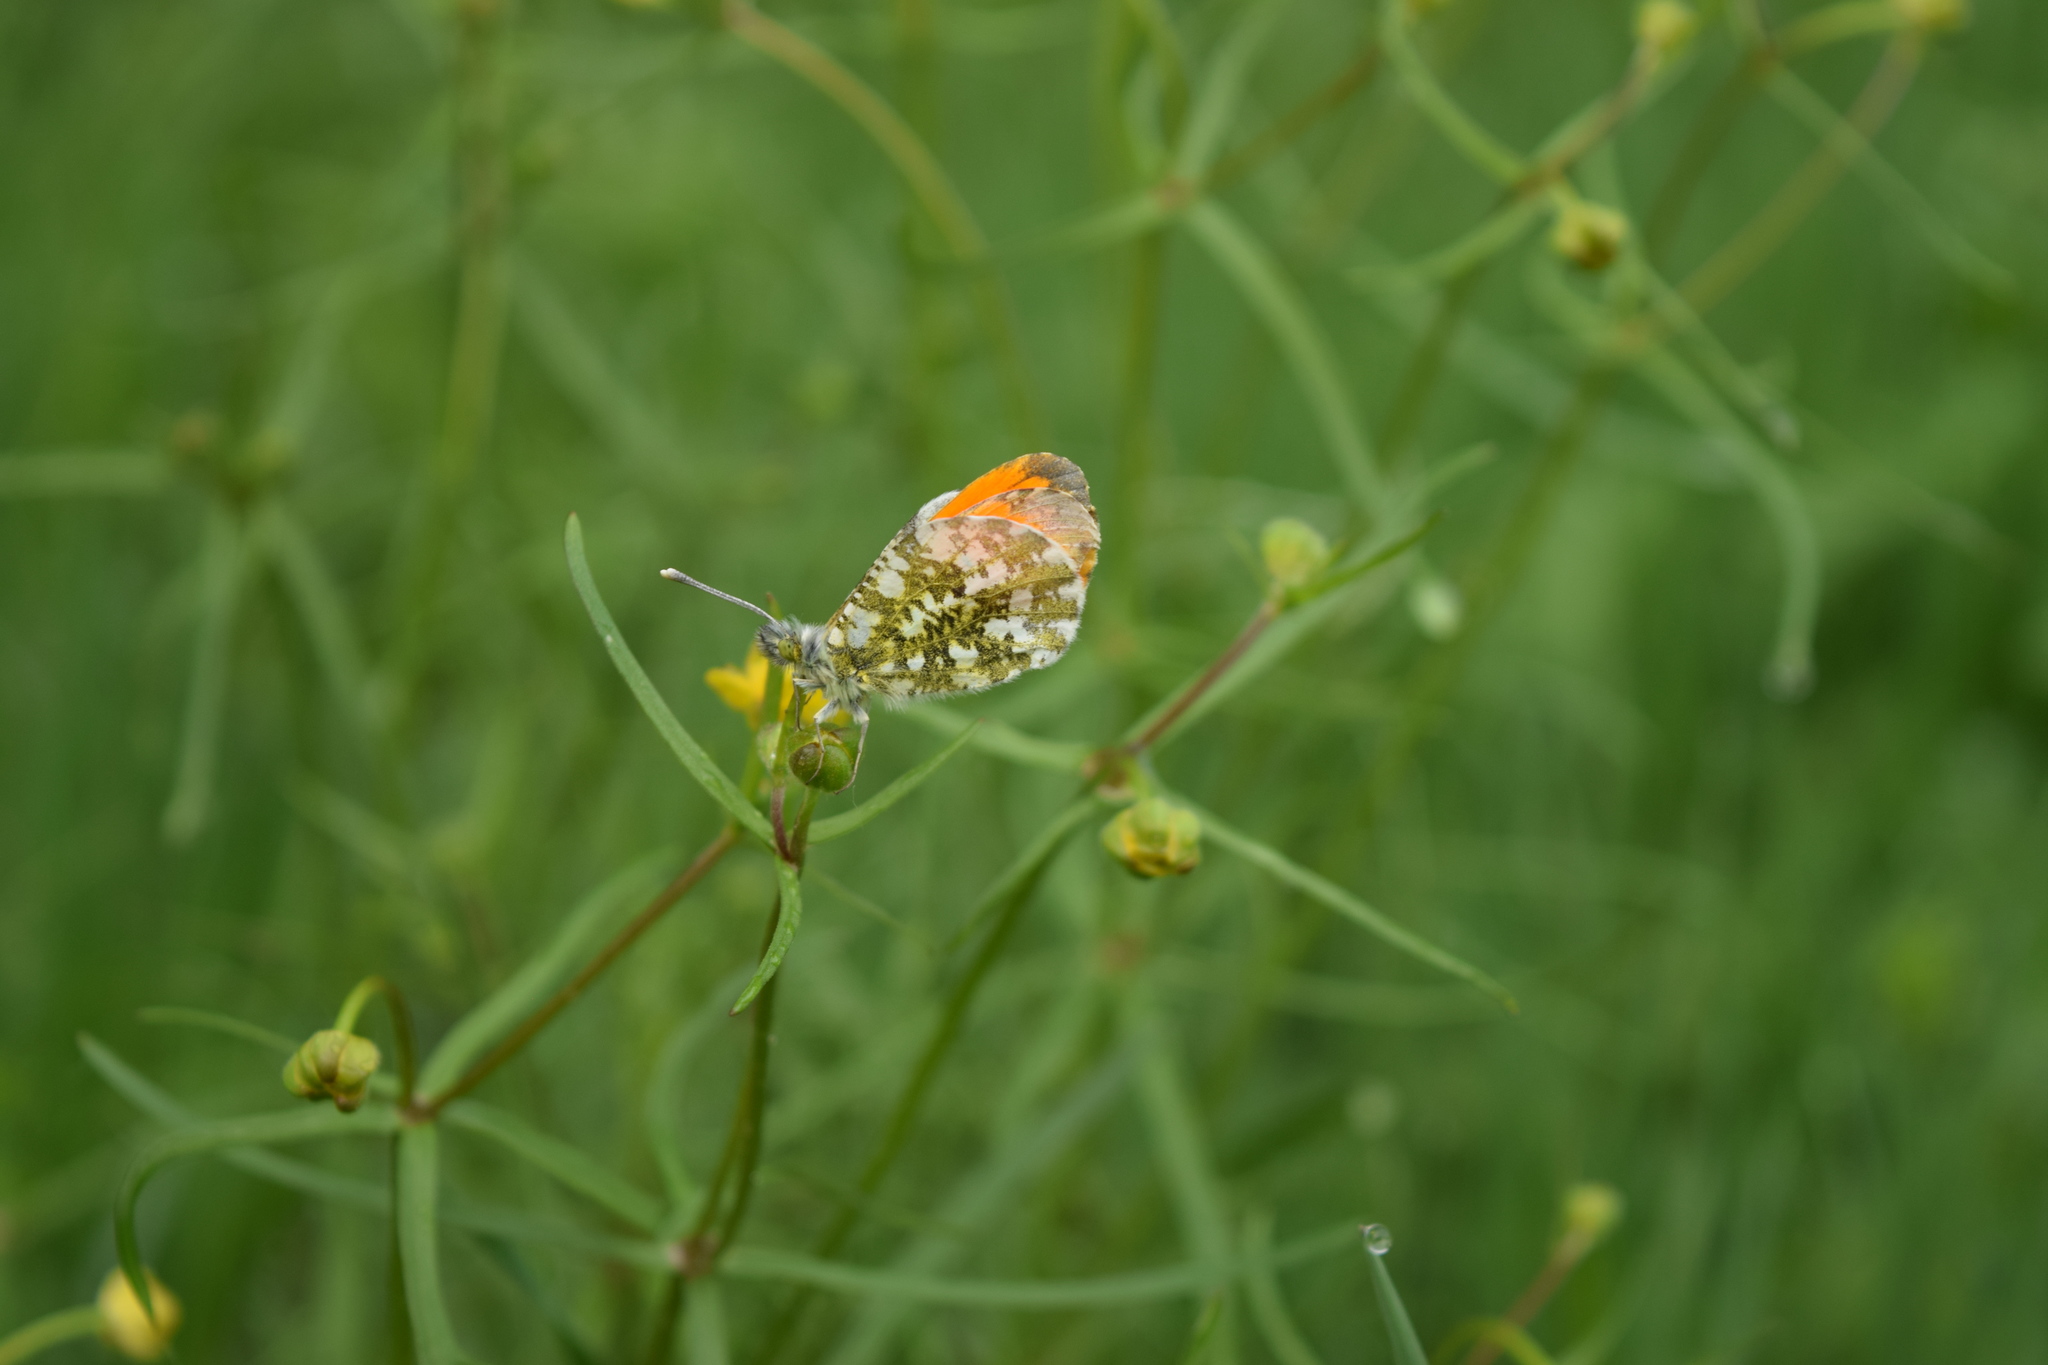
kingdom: Animalia
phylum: Arthropoda
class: Insecta
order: Lepidoptera
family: Pieridae
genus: Anthocharis
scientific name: Anthocharis cardamines
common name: Orange-tip
